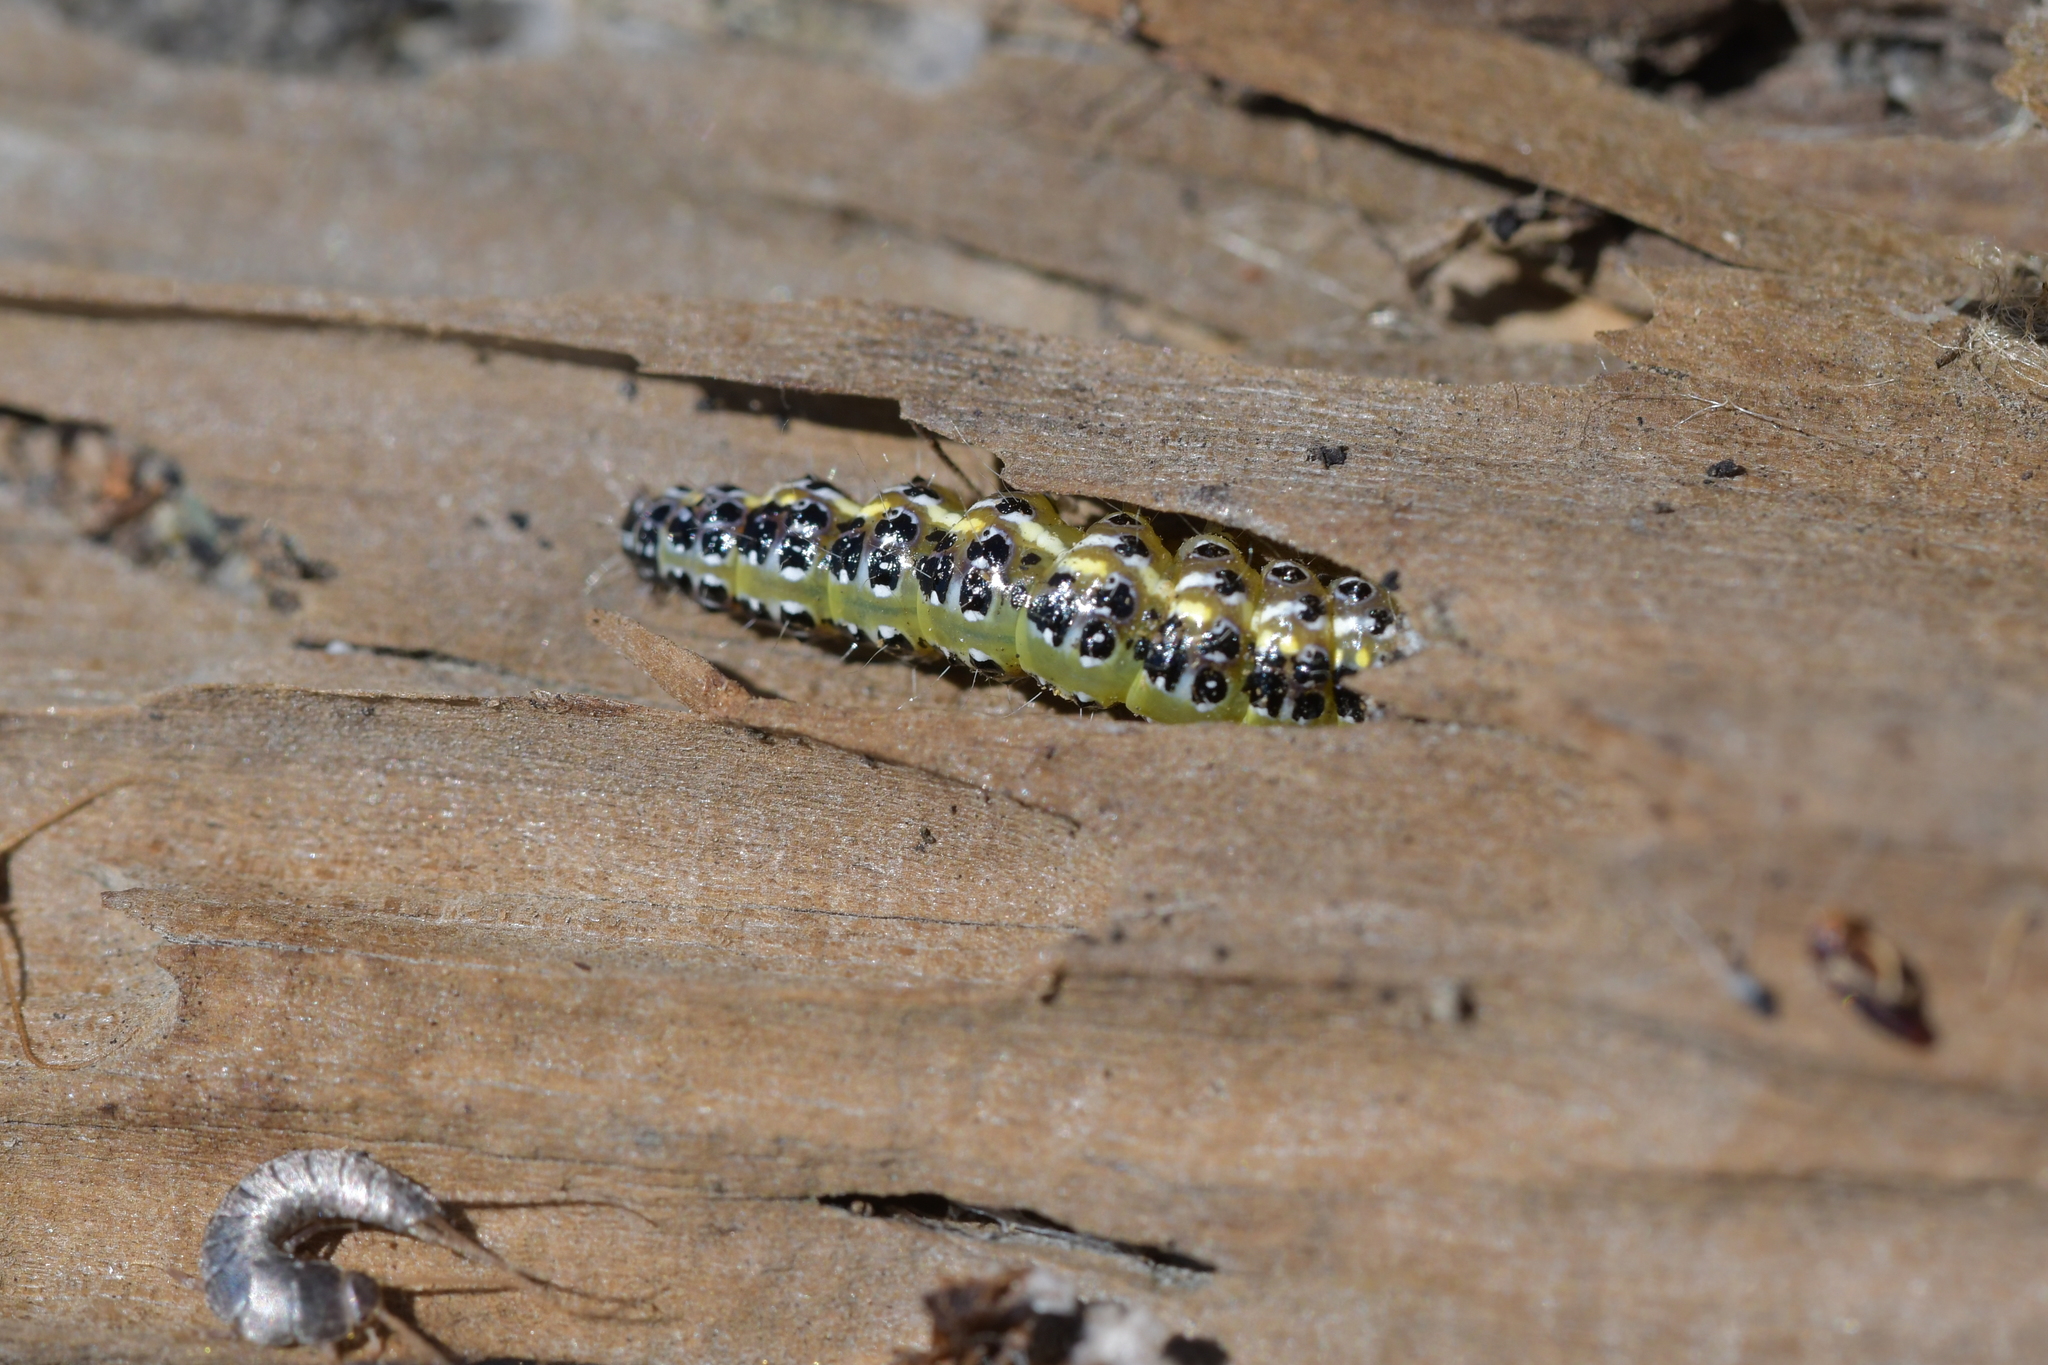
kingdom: Animalia
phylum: Arthropoda
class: Insecta
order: Lepidoptera
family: Crambidae
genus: Uresiphita
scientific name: Uresiphita
